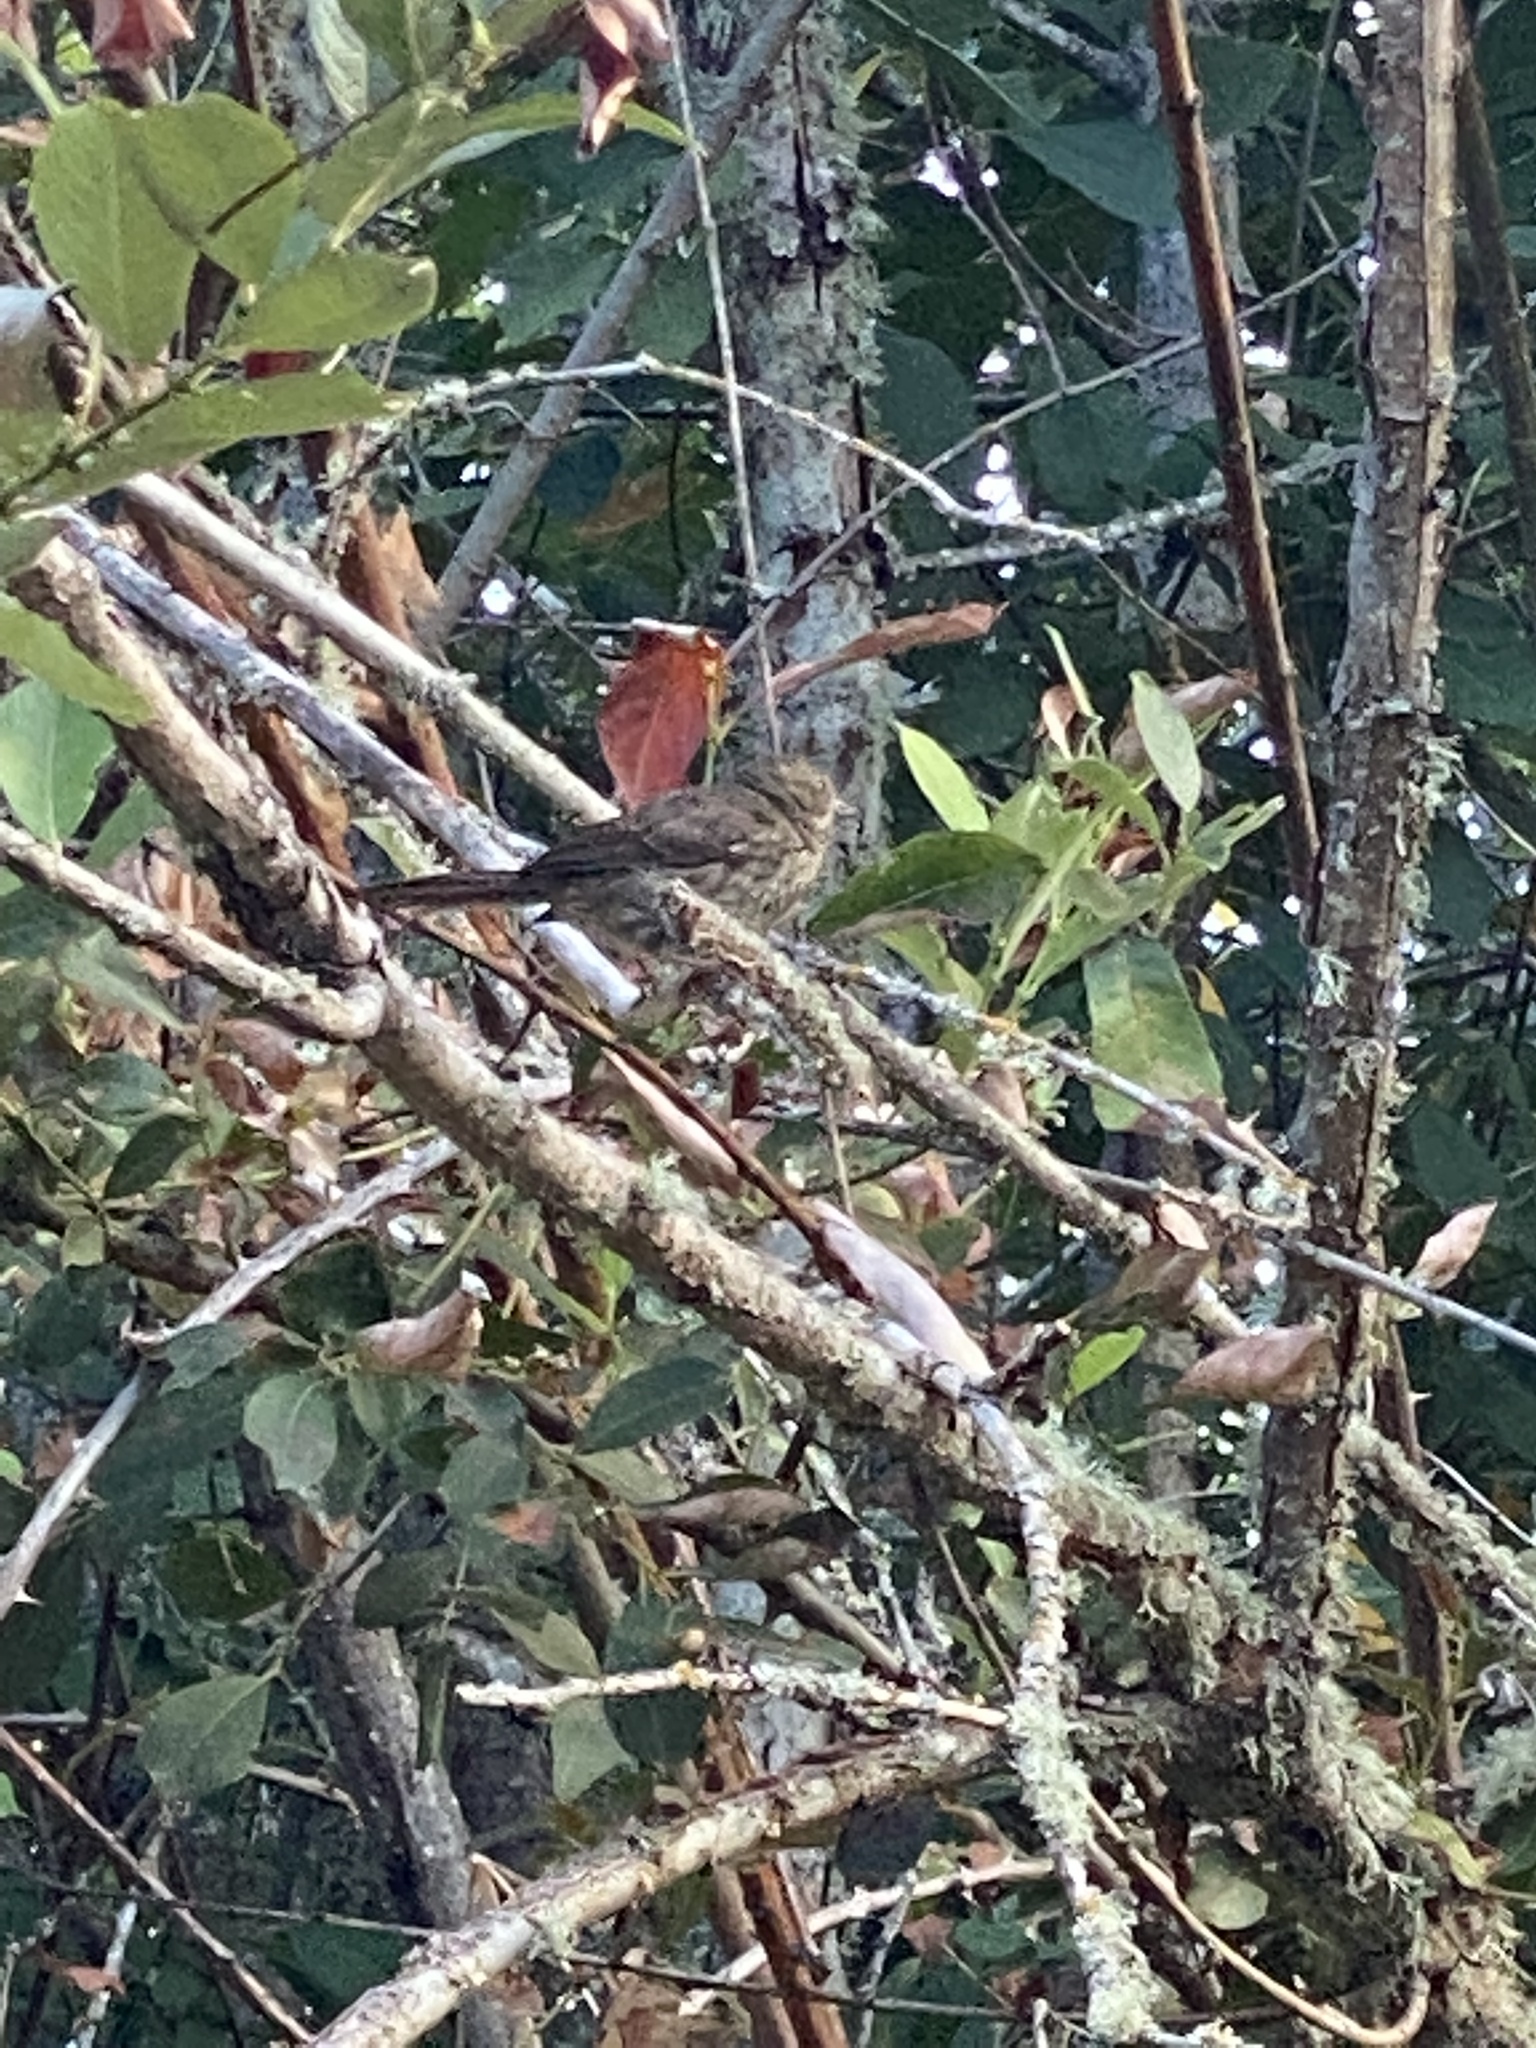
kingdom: Animalia
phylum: Chordata
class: Aves
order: Passeriformes
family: Passerellidae
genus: Melospiza
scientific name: Melospiza melodia
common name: Song sparrow
